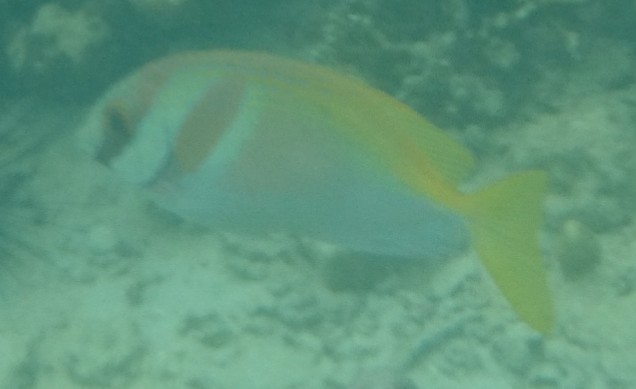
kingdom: Animalia
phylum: Chordata
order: Perciformes
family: Siganidae
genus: Siganus
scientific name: Siganus virgatus
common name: Barhead spinefoot
